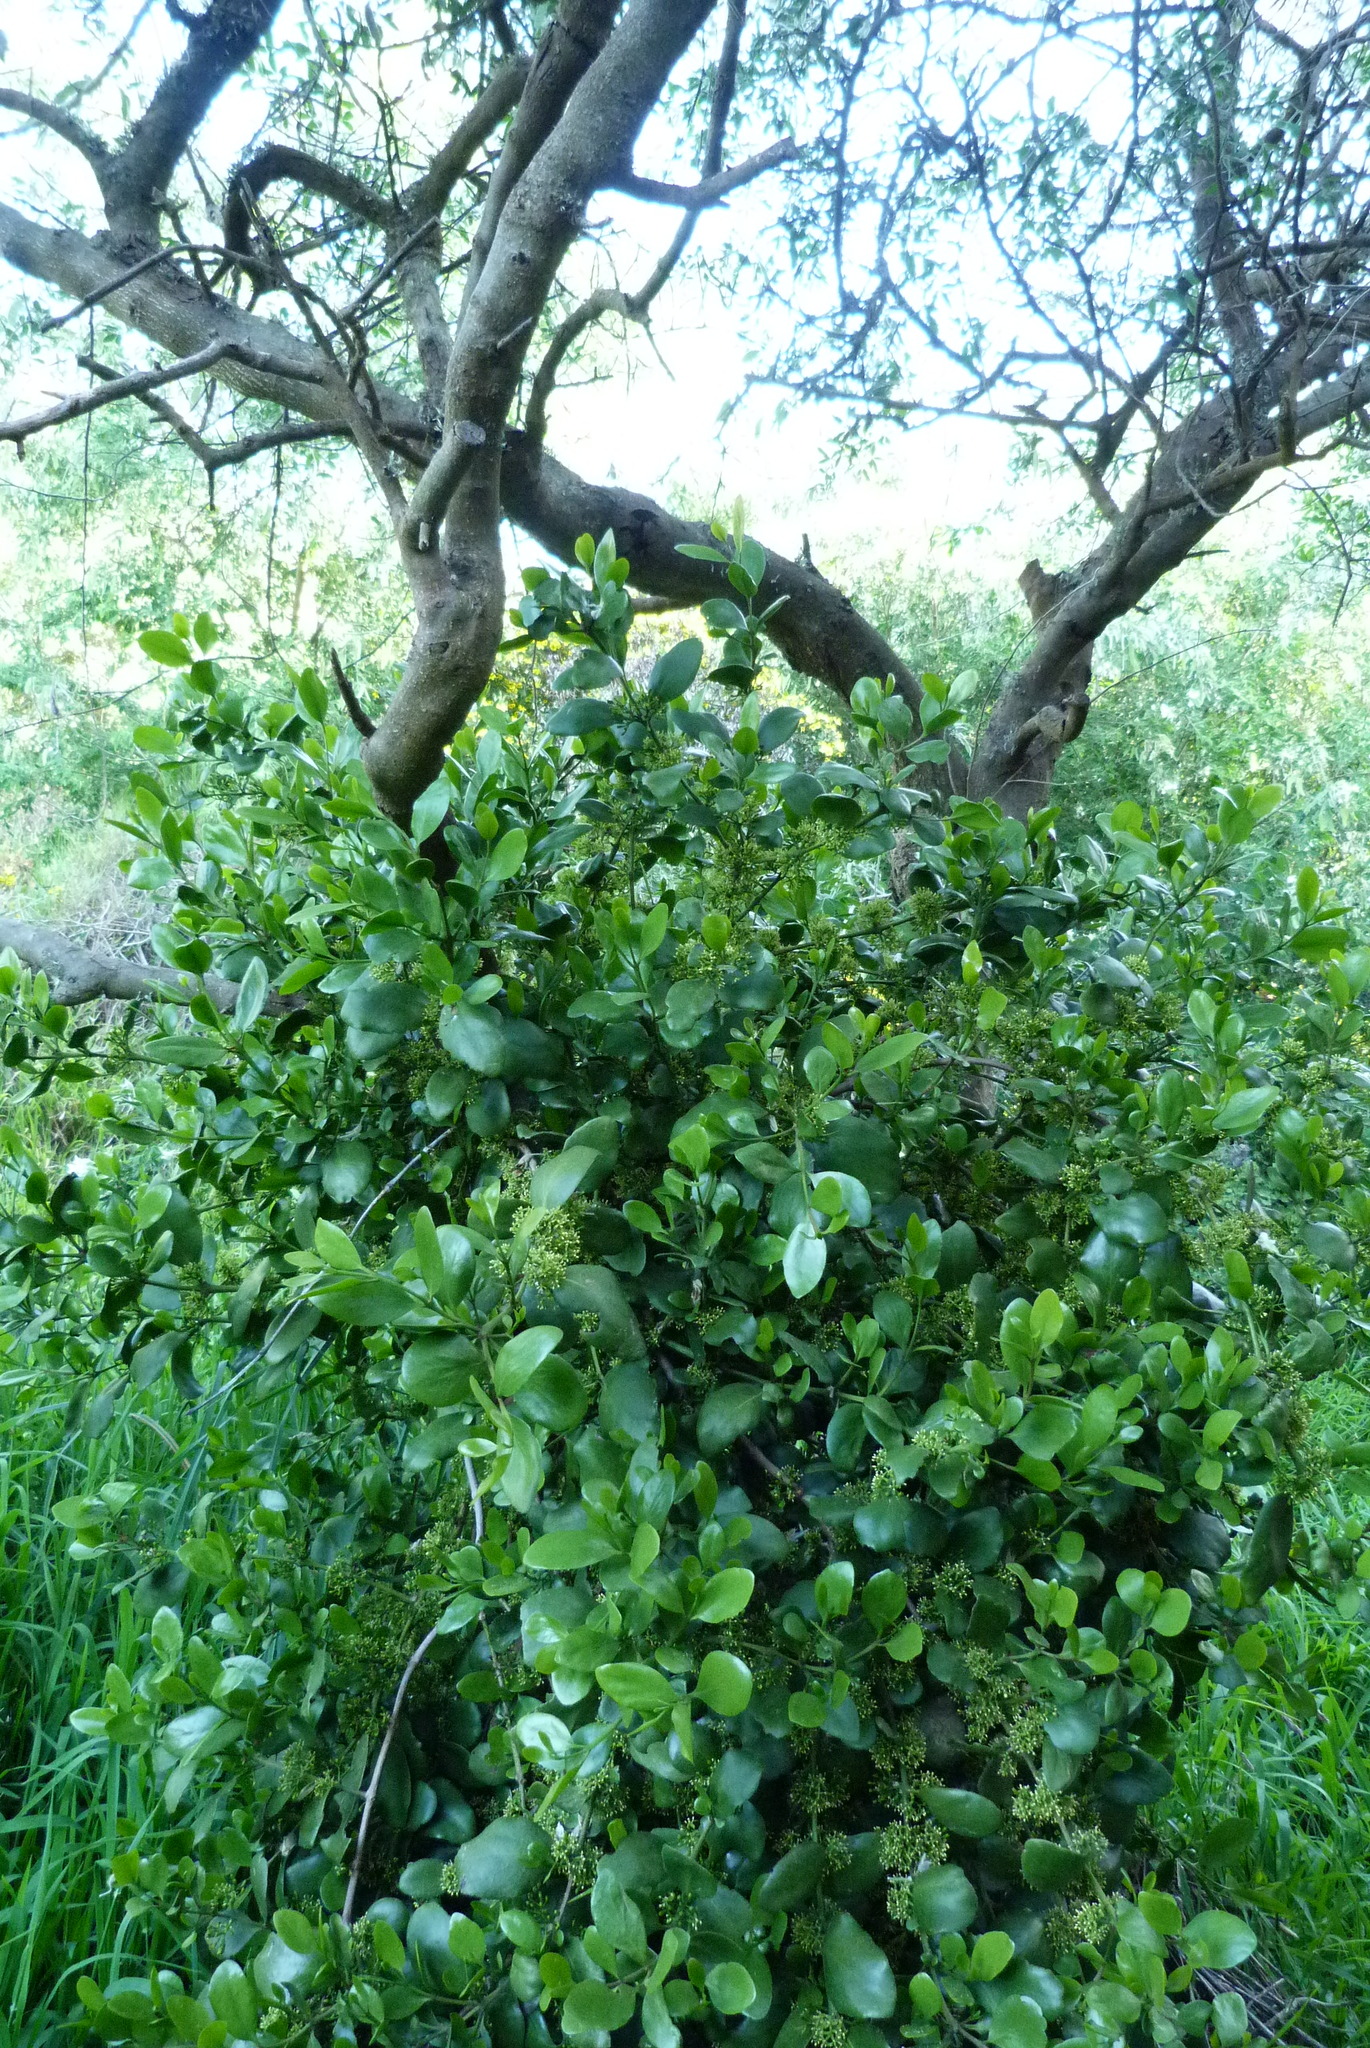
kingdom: Plantae
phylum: Tracheophyta
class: Magnoliopsida
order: Santalales
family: Loranthaceae
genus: Ileostylus
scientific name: Ileostylus micranthus
